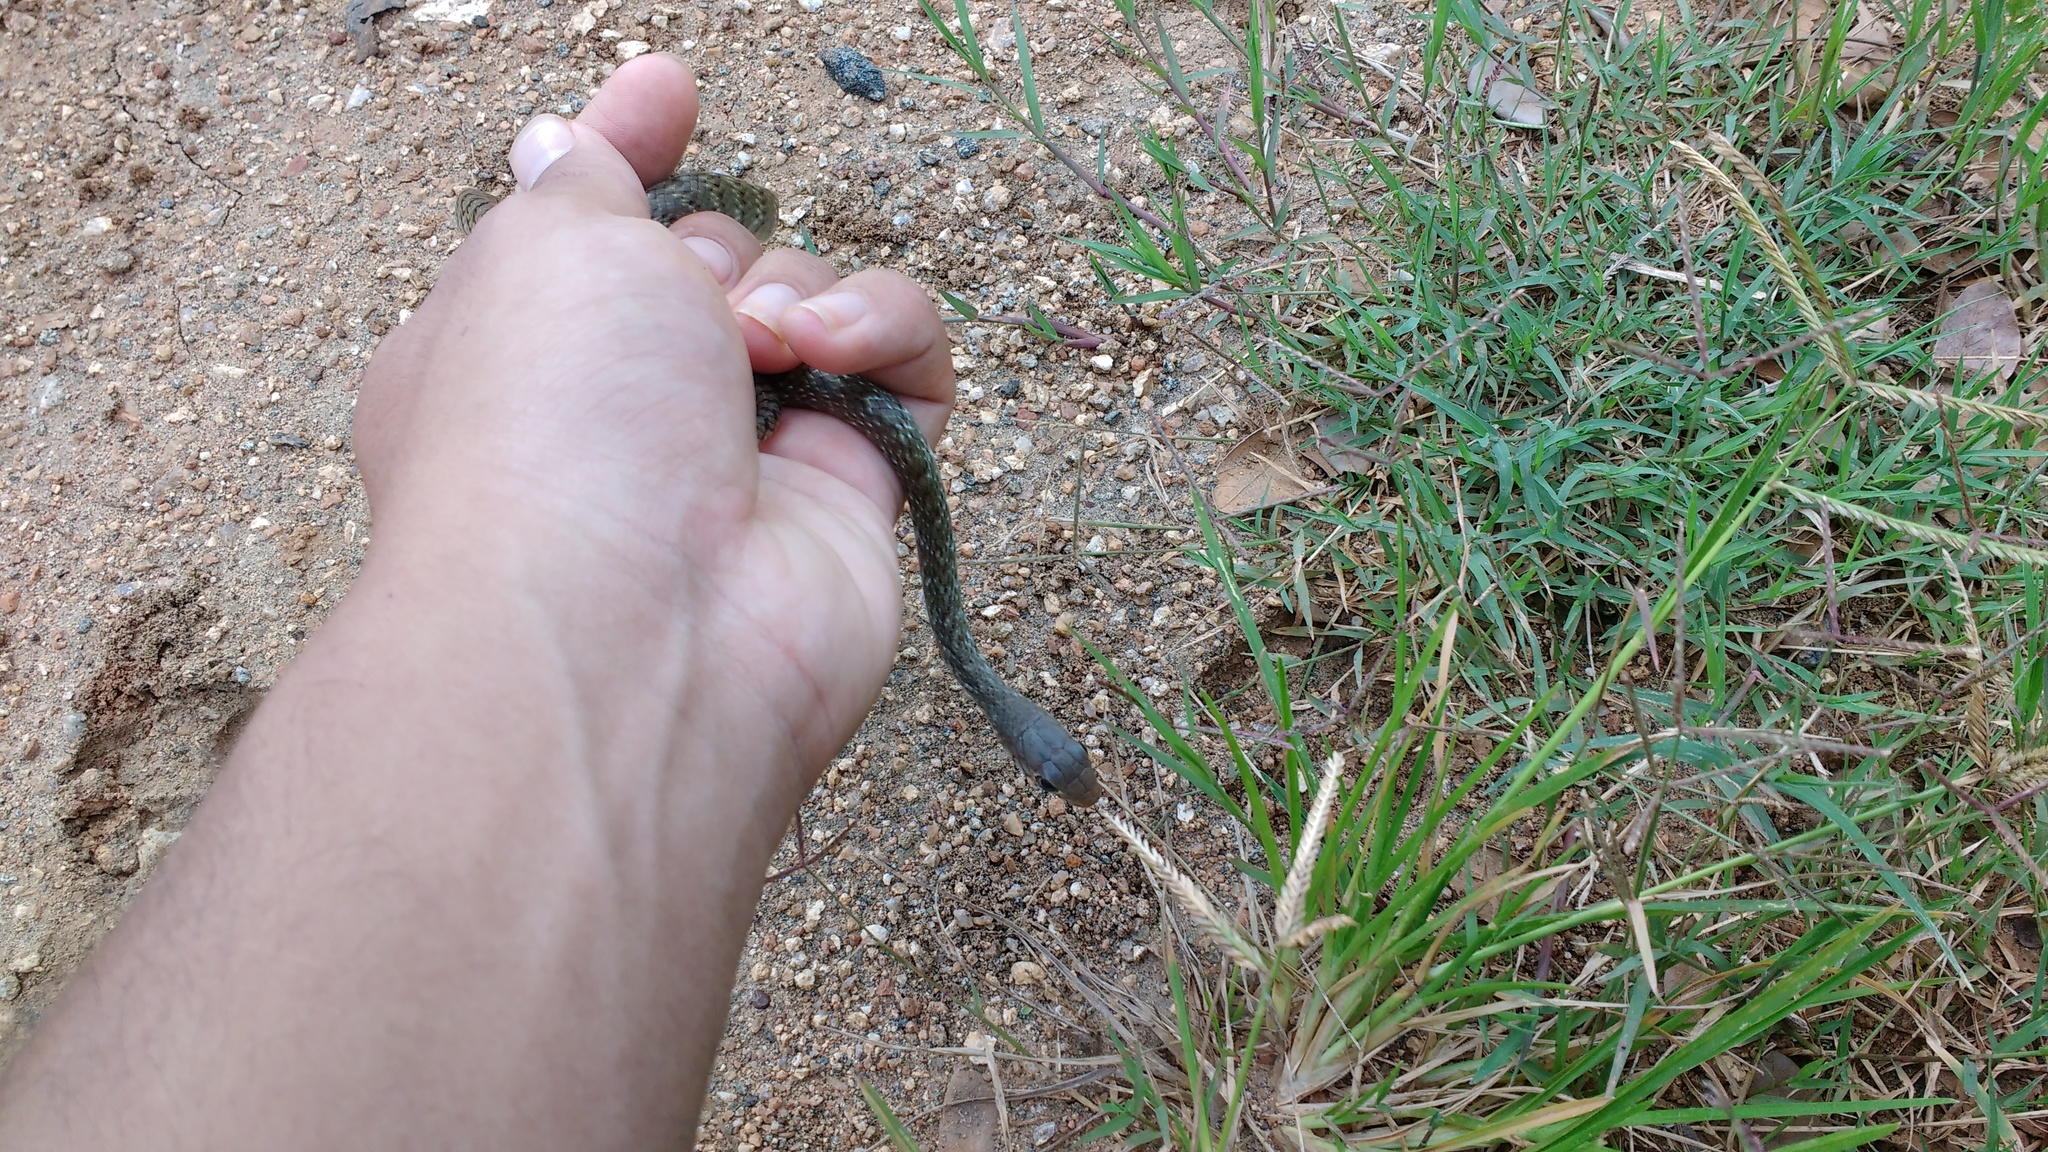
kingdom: Animalia
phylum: Chordata
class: Squamata
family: Colubridae
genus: Ptyas
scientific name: Ptyas mucosa
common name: Oriental ratsnake
